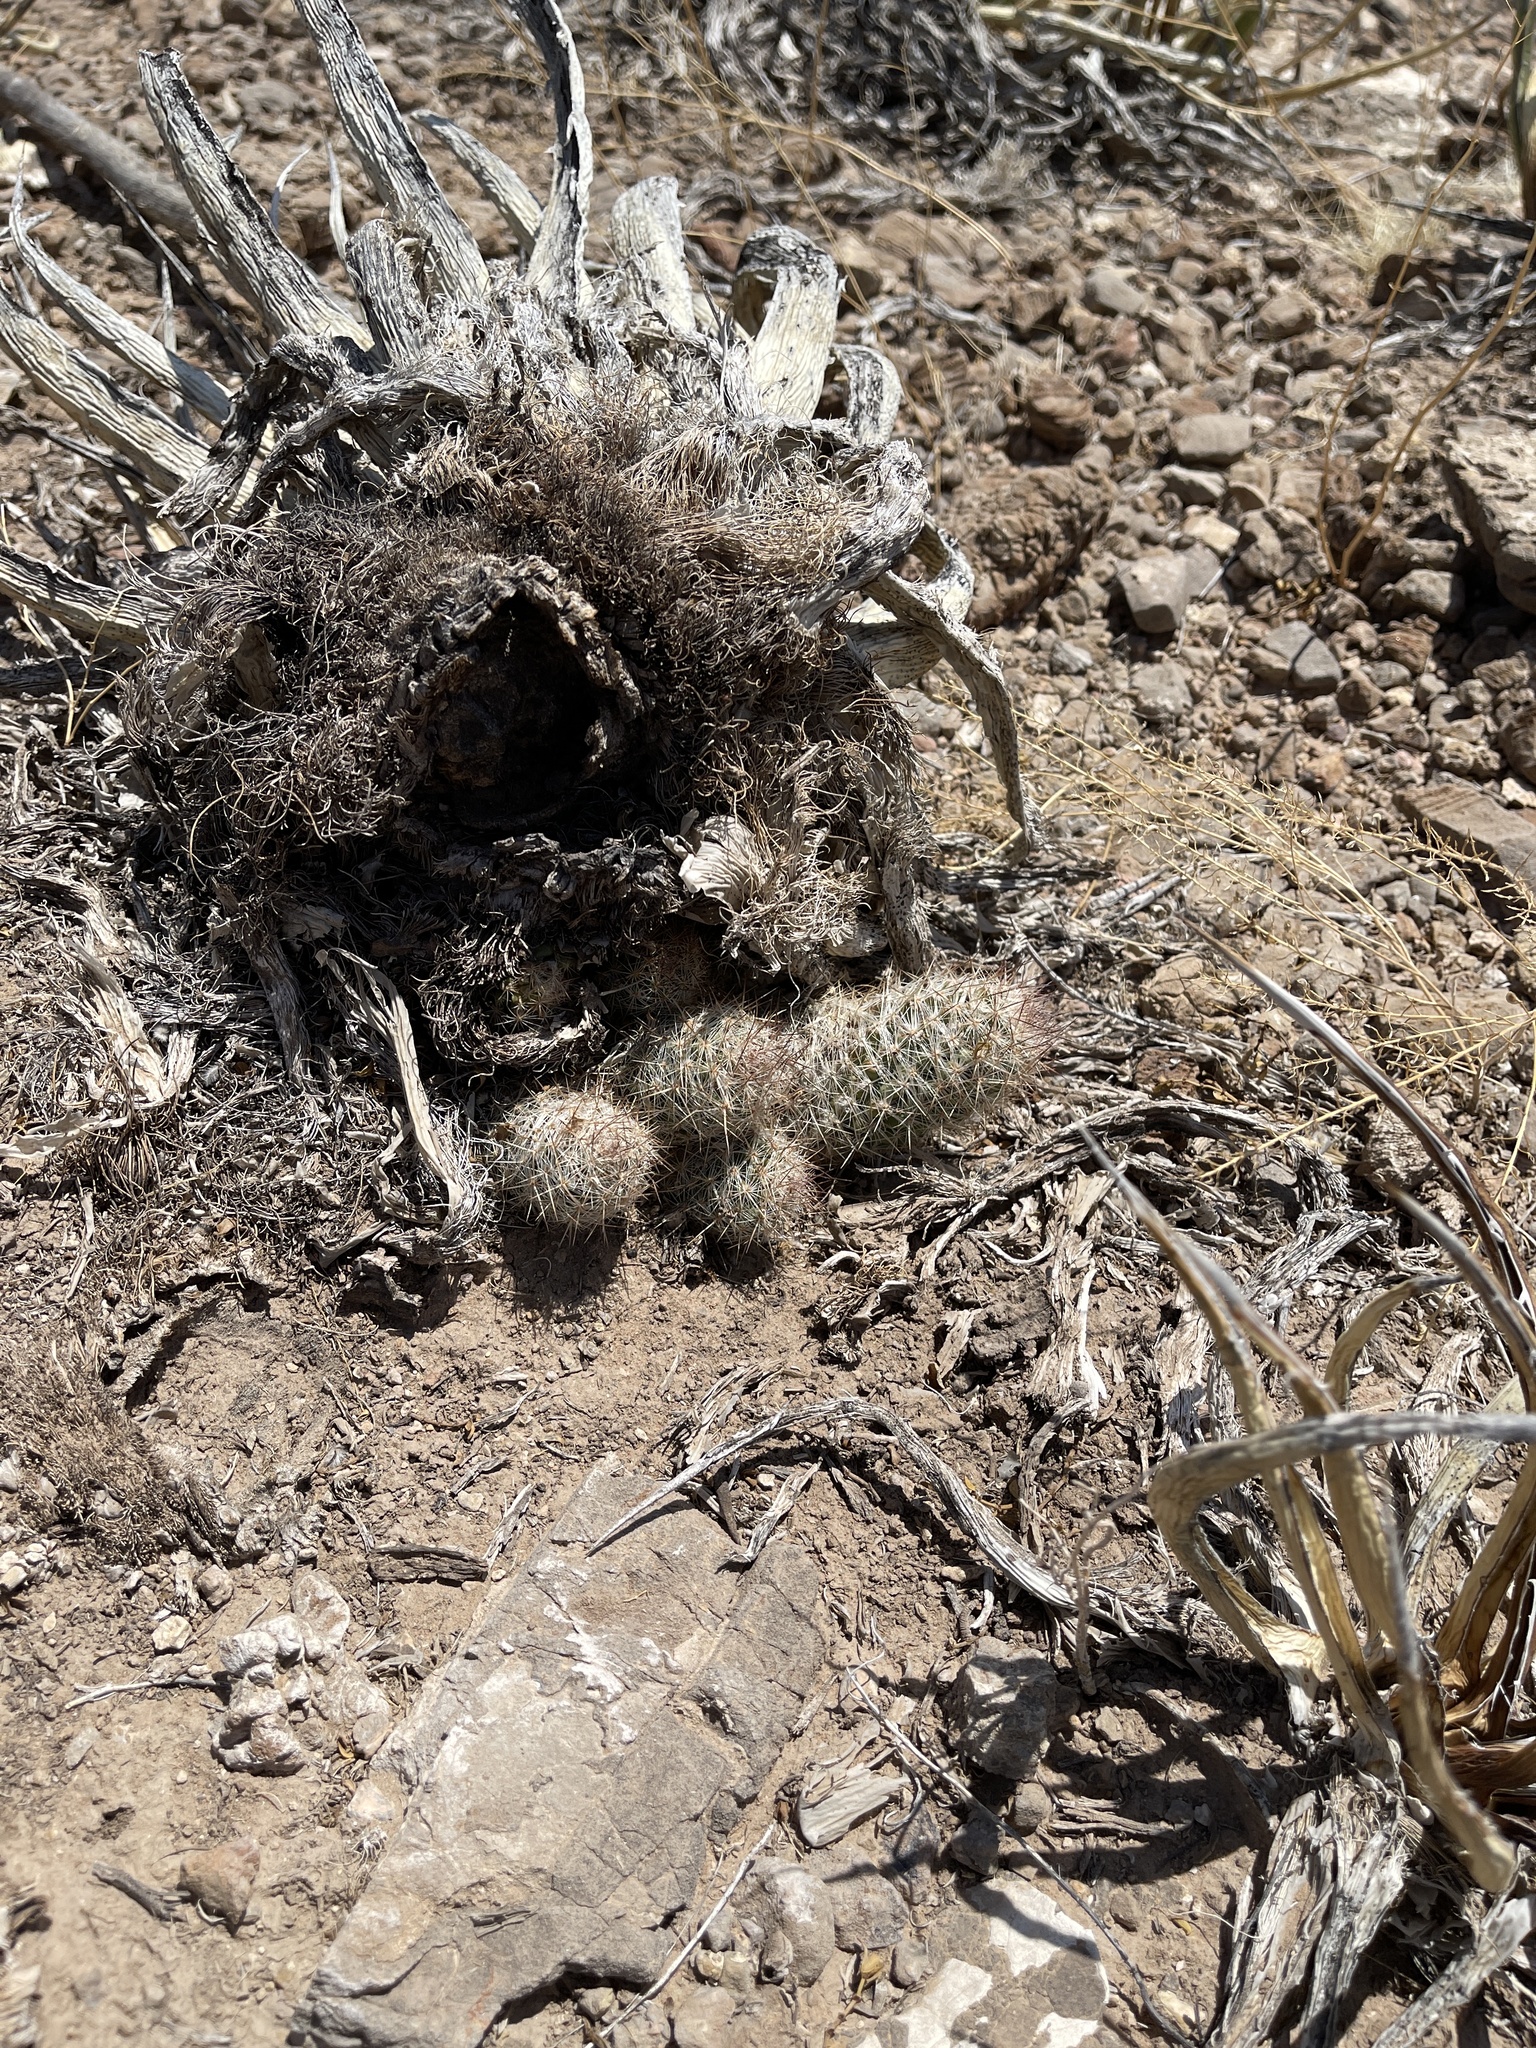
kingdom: Plantae
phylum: Tracheophyta
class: Magnoliopsida
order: Caryophyllales
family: Cactaceae
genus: Pelecyphora
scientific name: Pelecyphora tuberculosa
